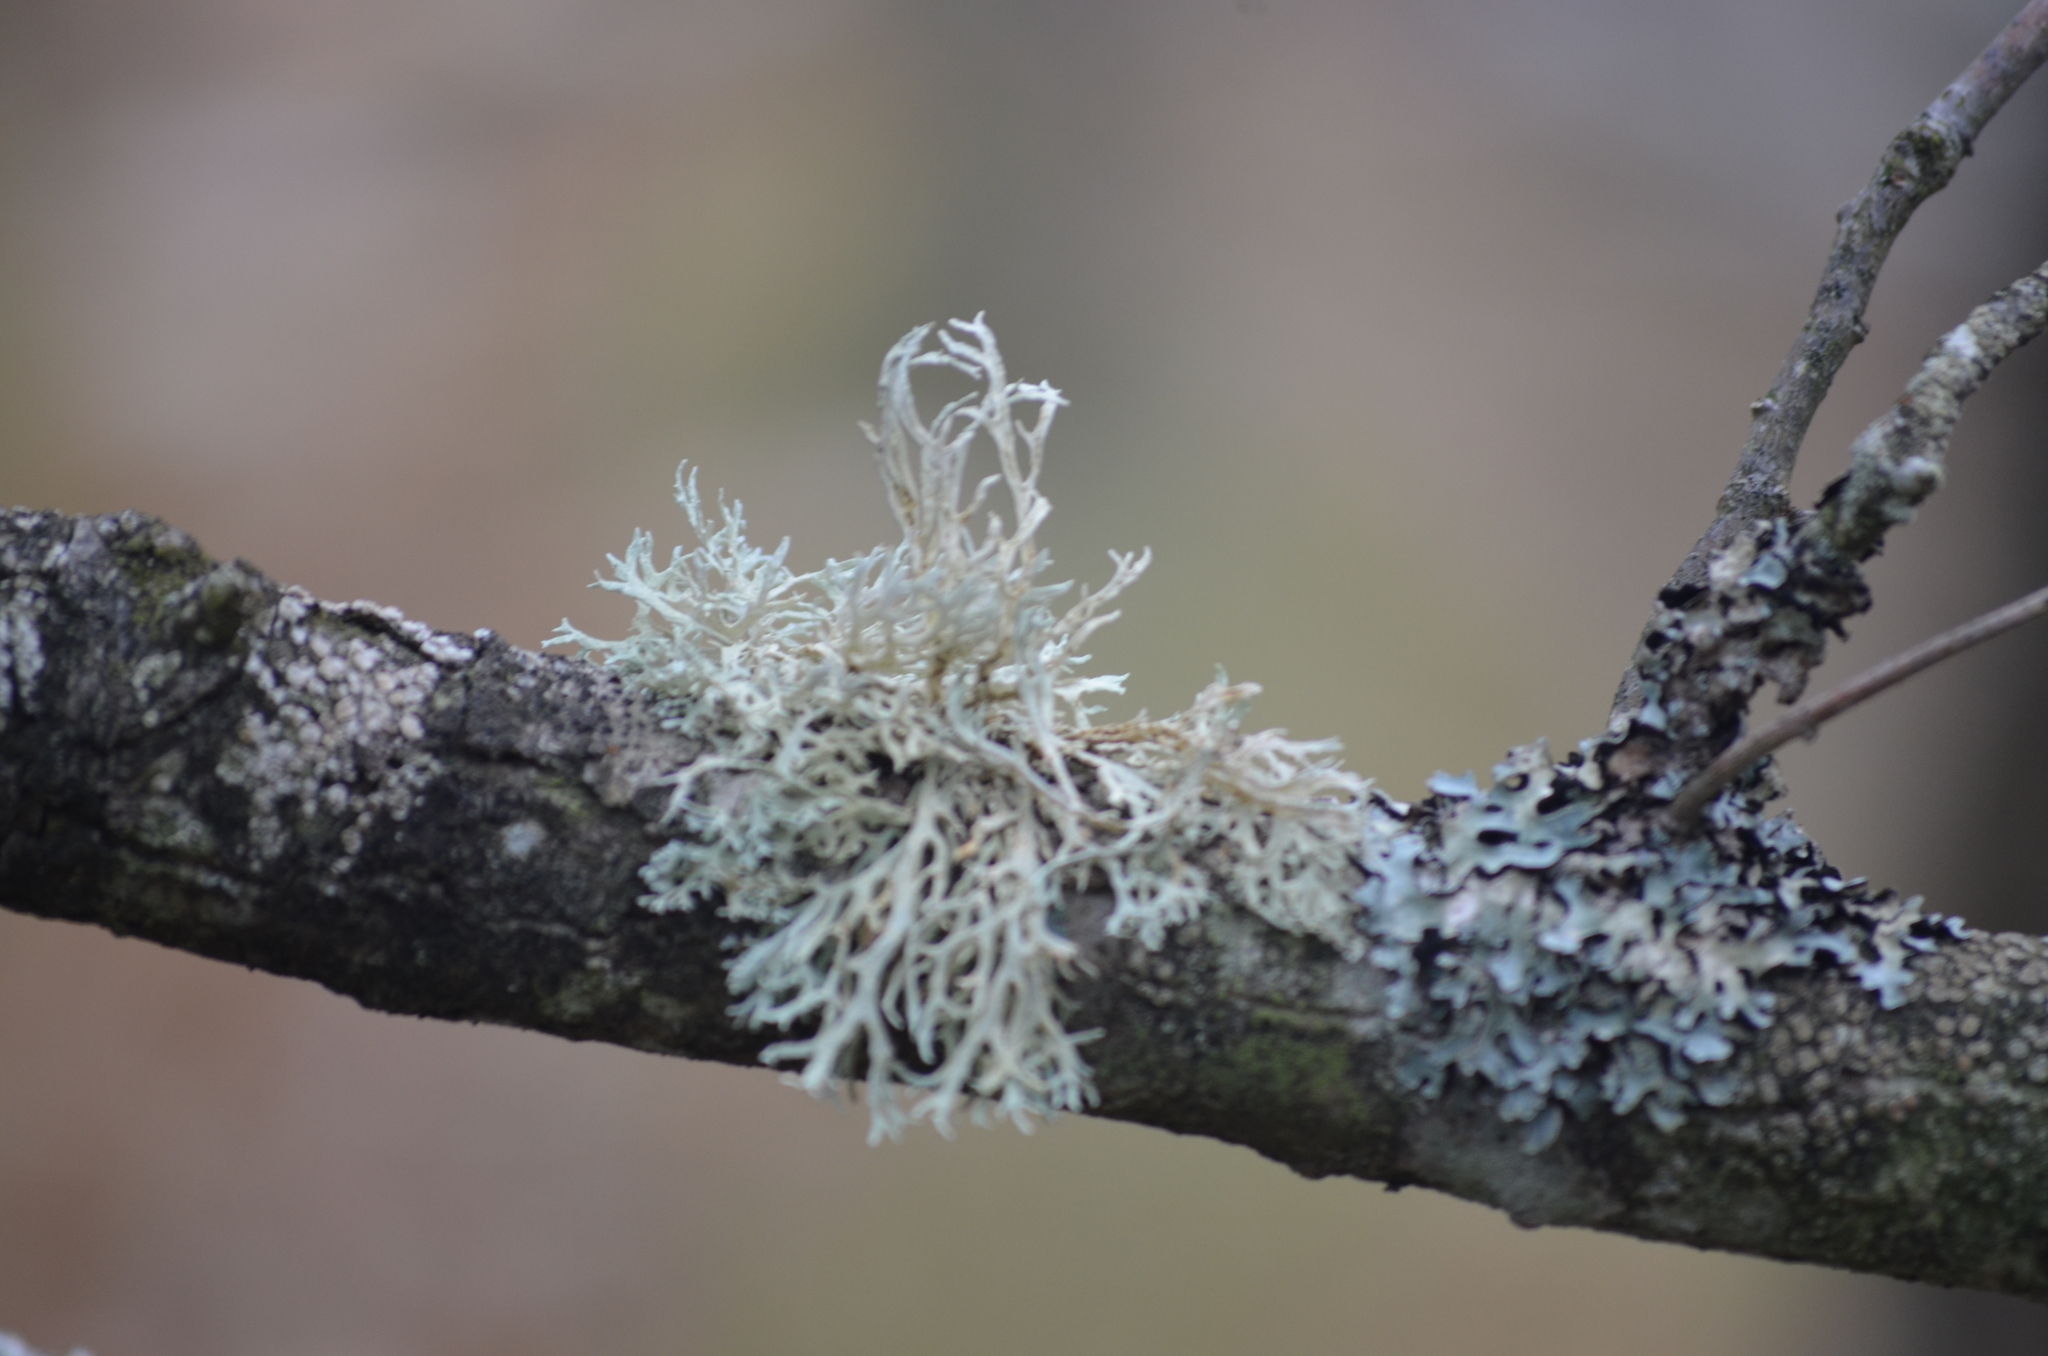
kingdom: Fungi
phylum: Ascomycota
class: Lecanoromycetes
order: Lecanorales
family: Parmeliaceae
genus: Evernia
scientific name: Evernia prunastri
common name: Oak moss
